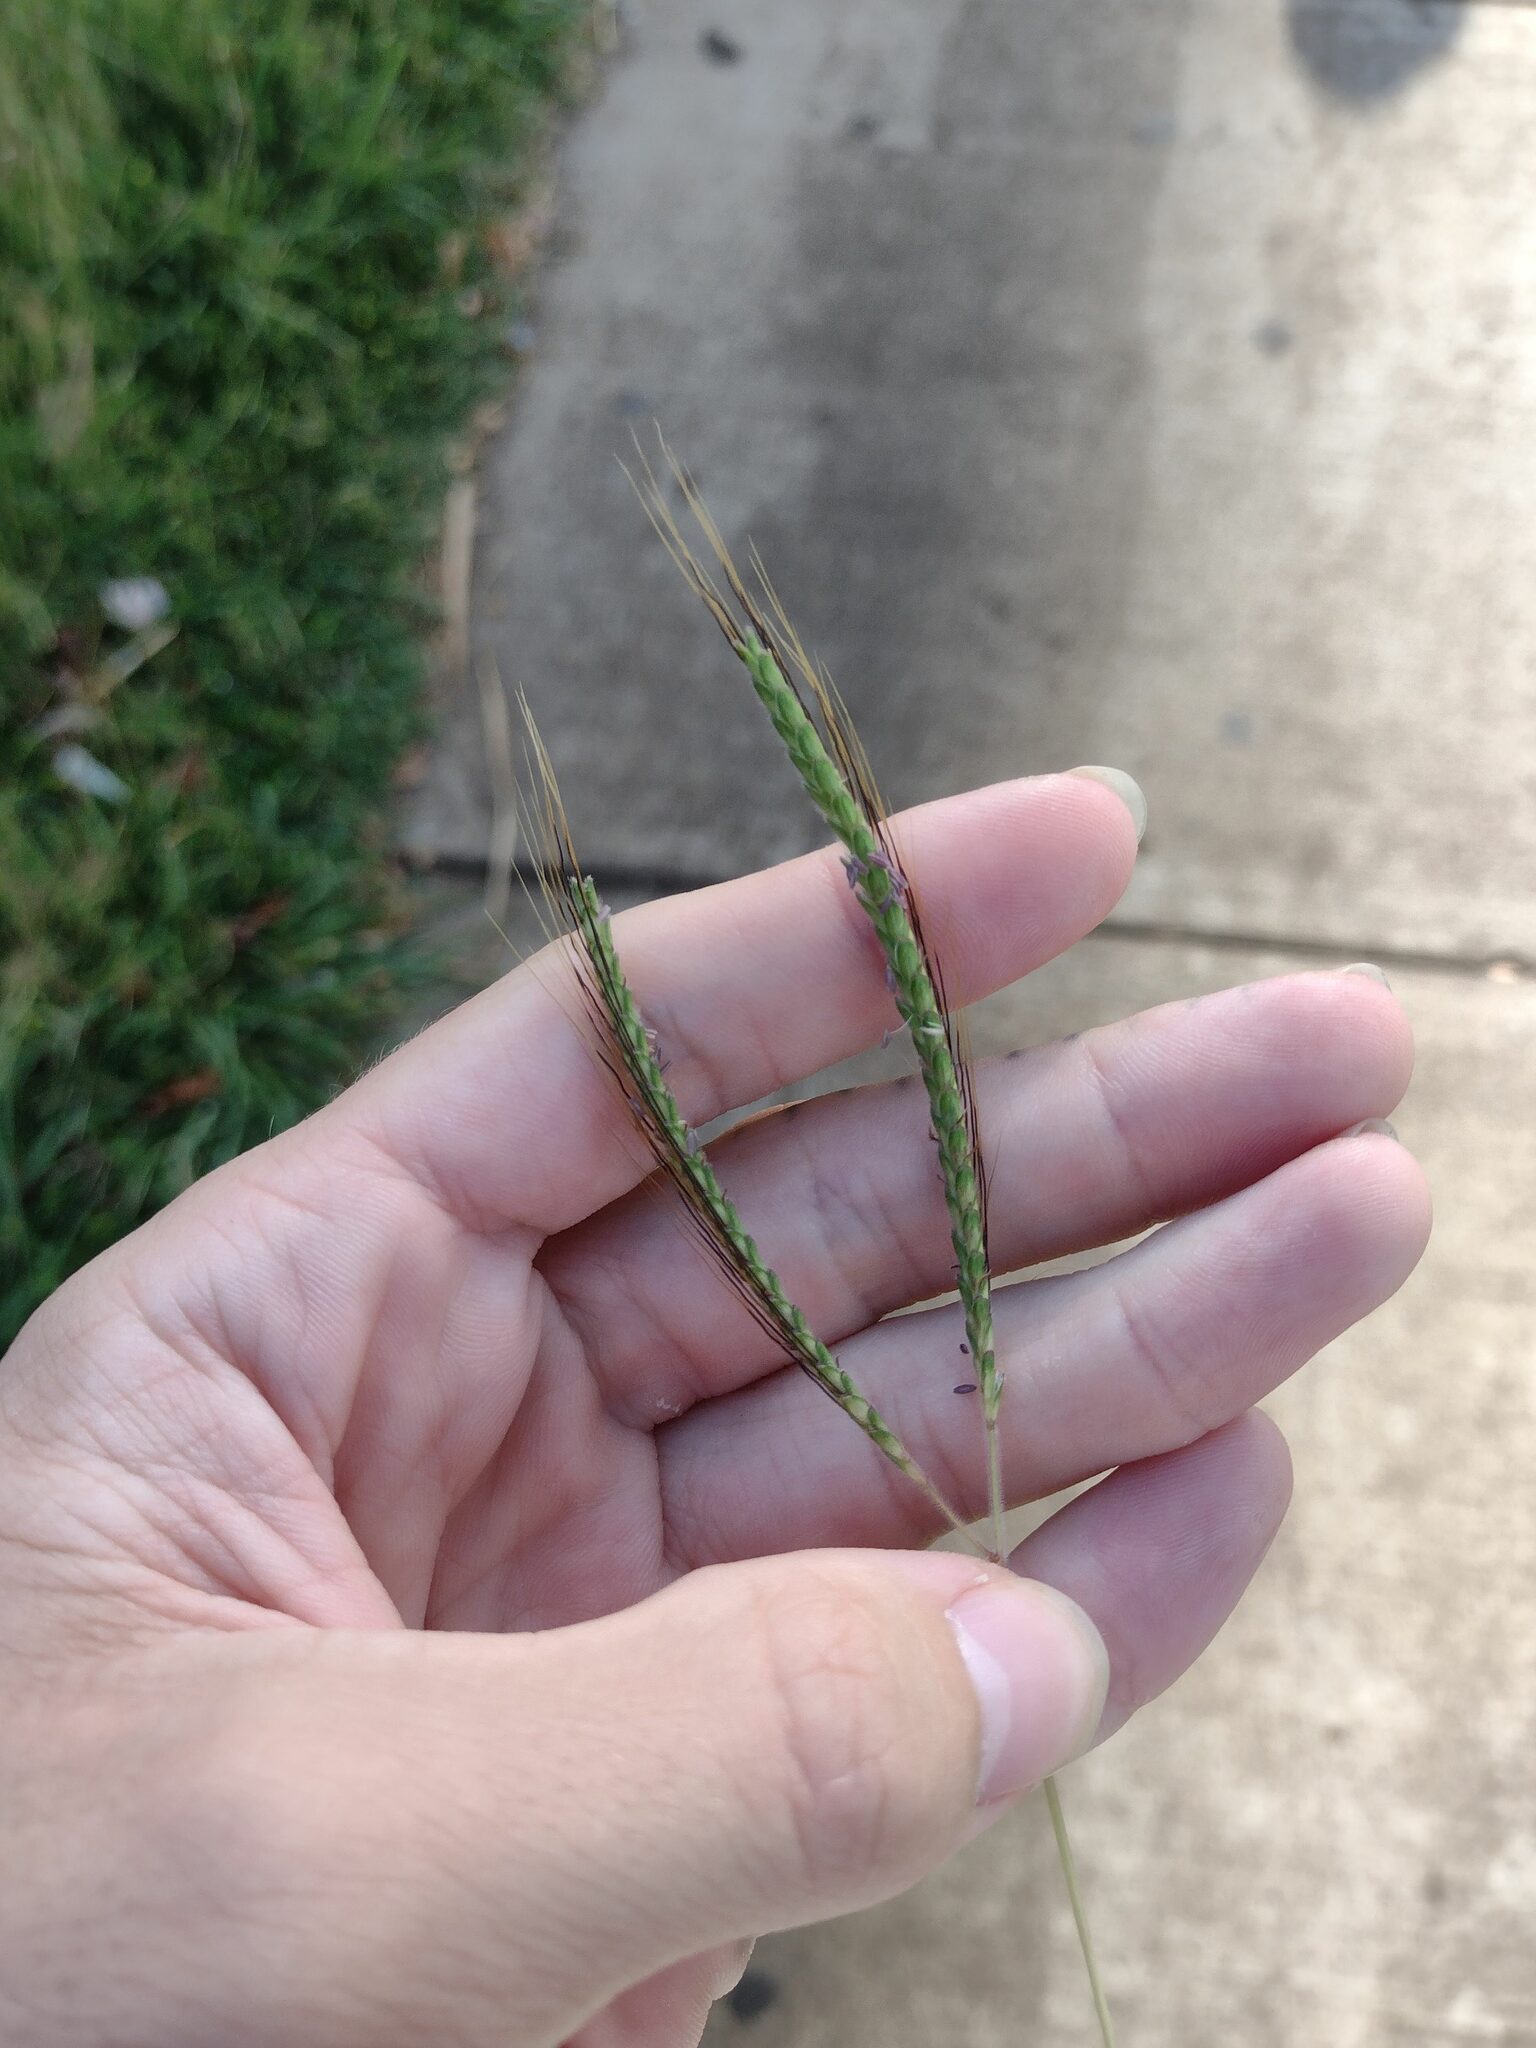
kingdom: Plantae
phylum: Tracheophyta
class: Liliopsida
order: Poales
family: Poaceae
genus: Dichanthium
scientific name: Dichanthium aristatum
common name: Angleton bluestem
